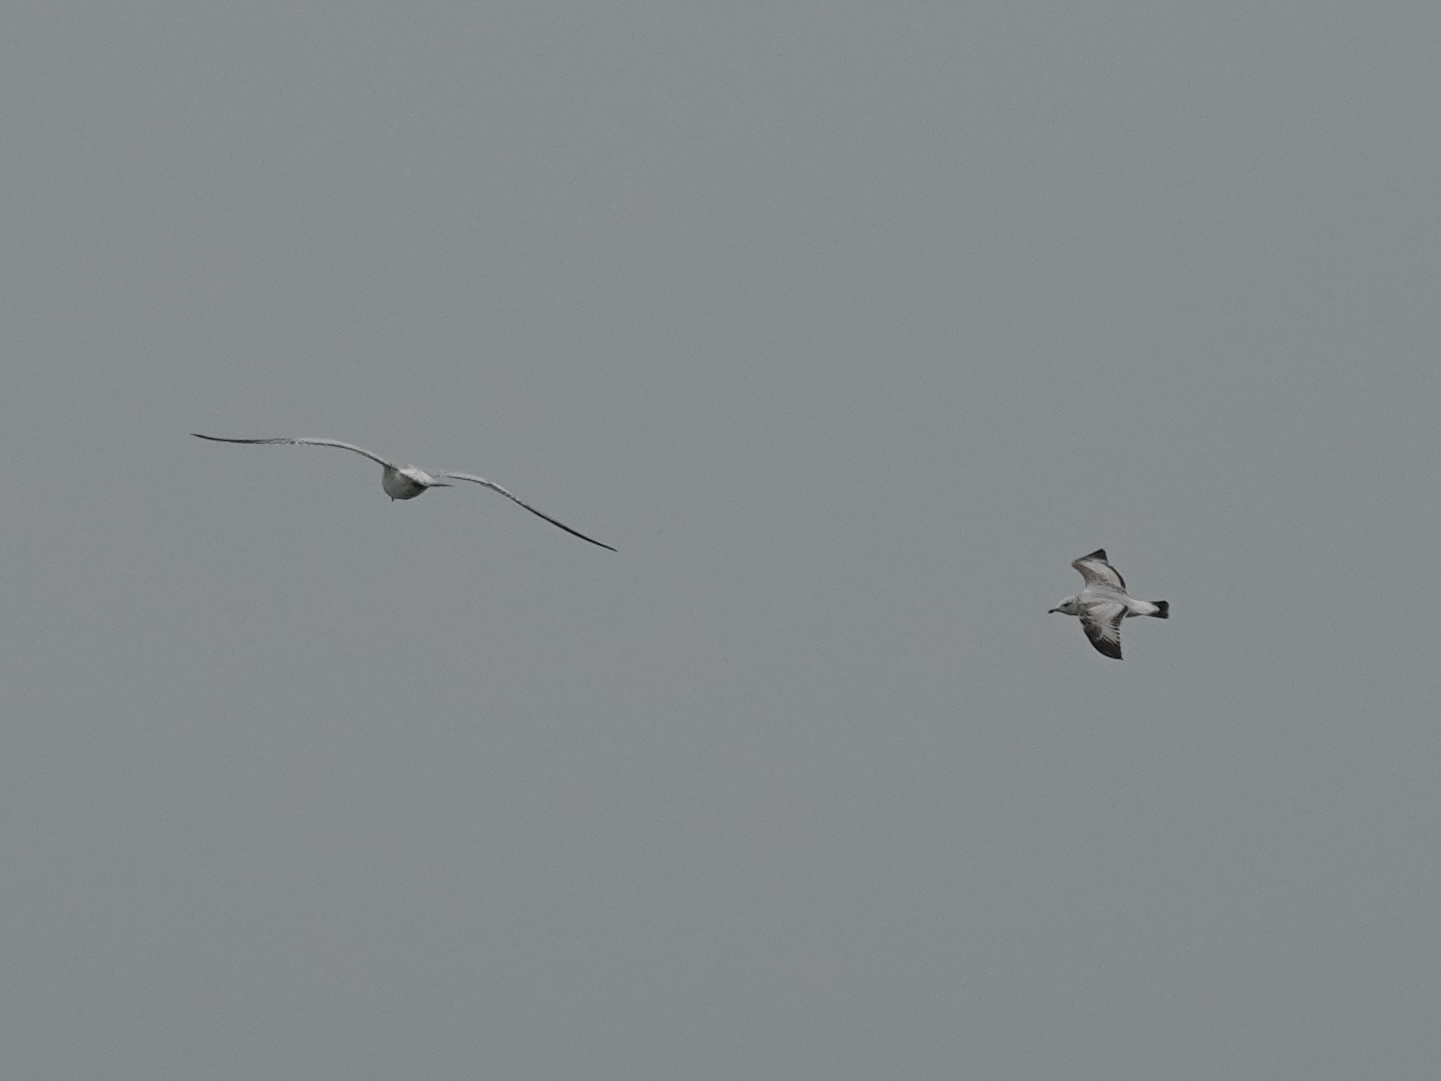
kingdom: Animalia
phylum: Chordata
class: Aves
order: Charadriiformes
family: Laridae
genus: Larus
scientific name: Larus delawarensis
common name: Ring-billed gull
